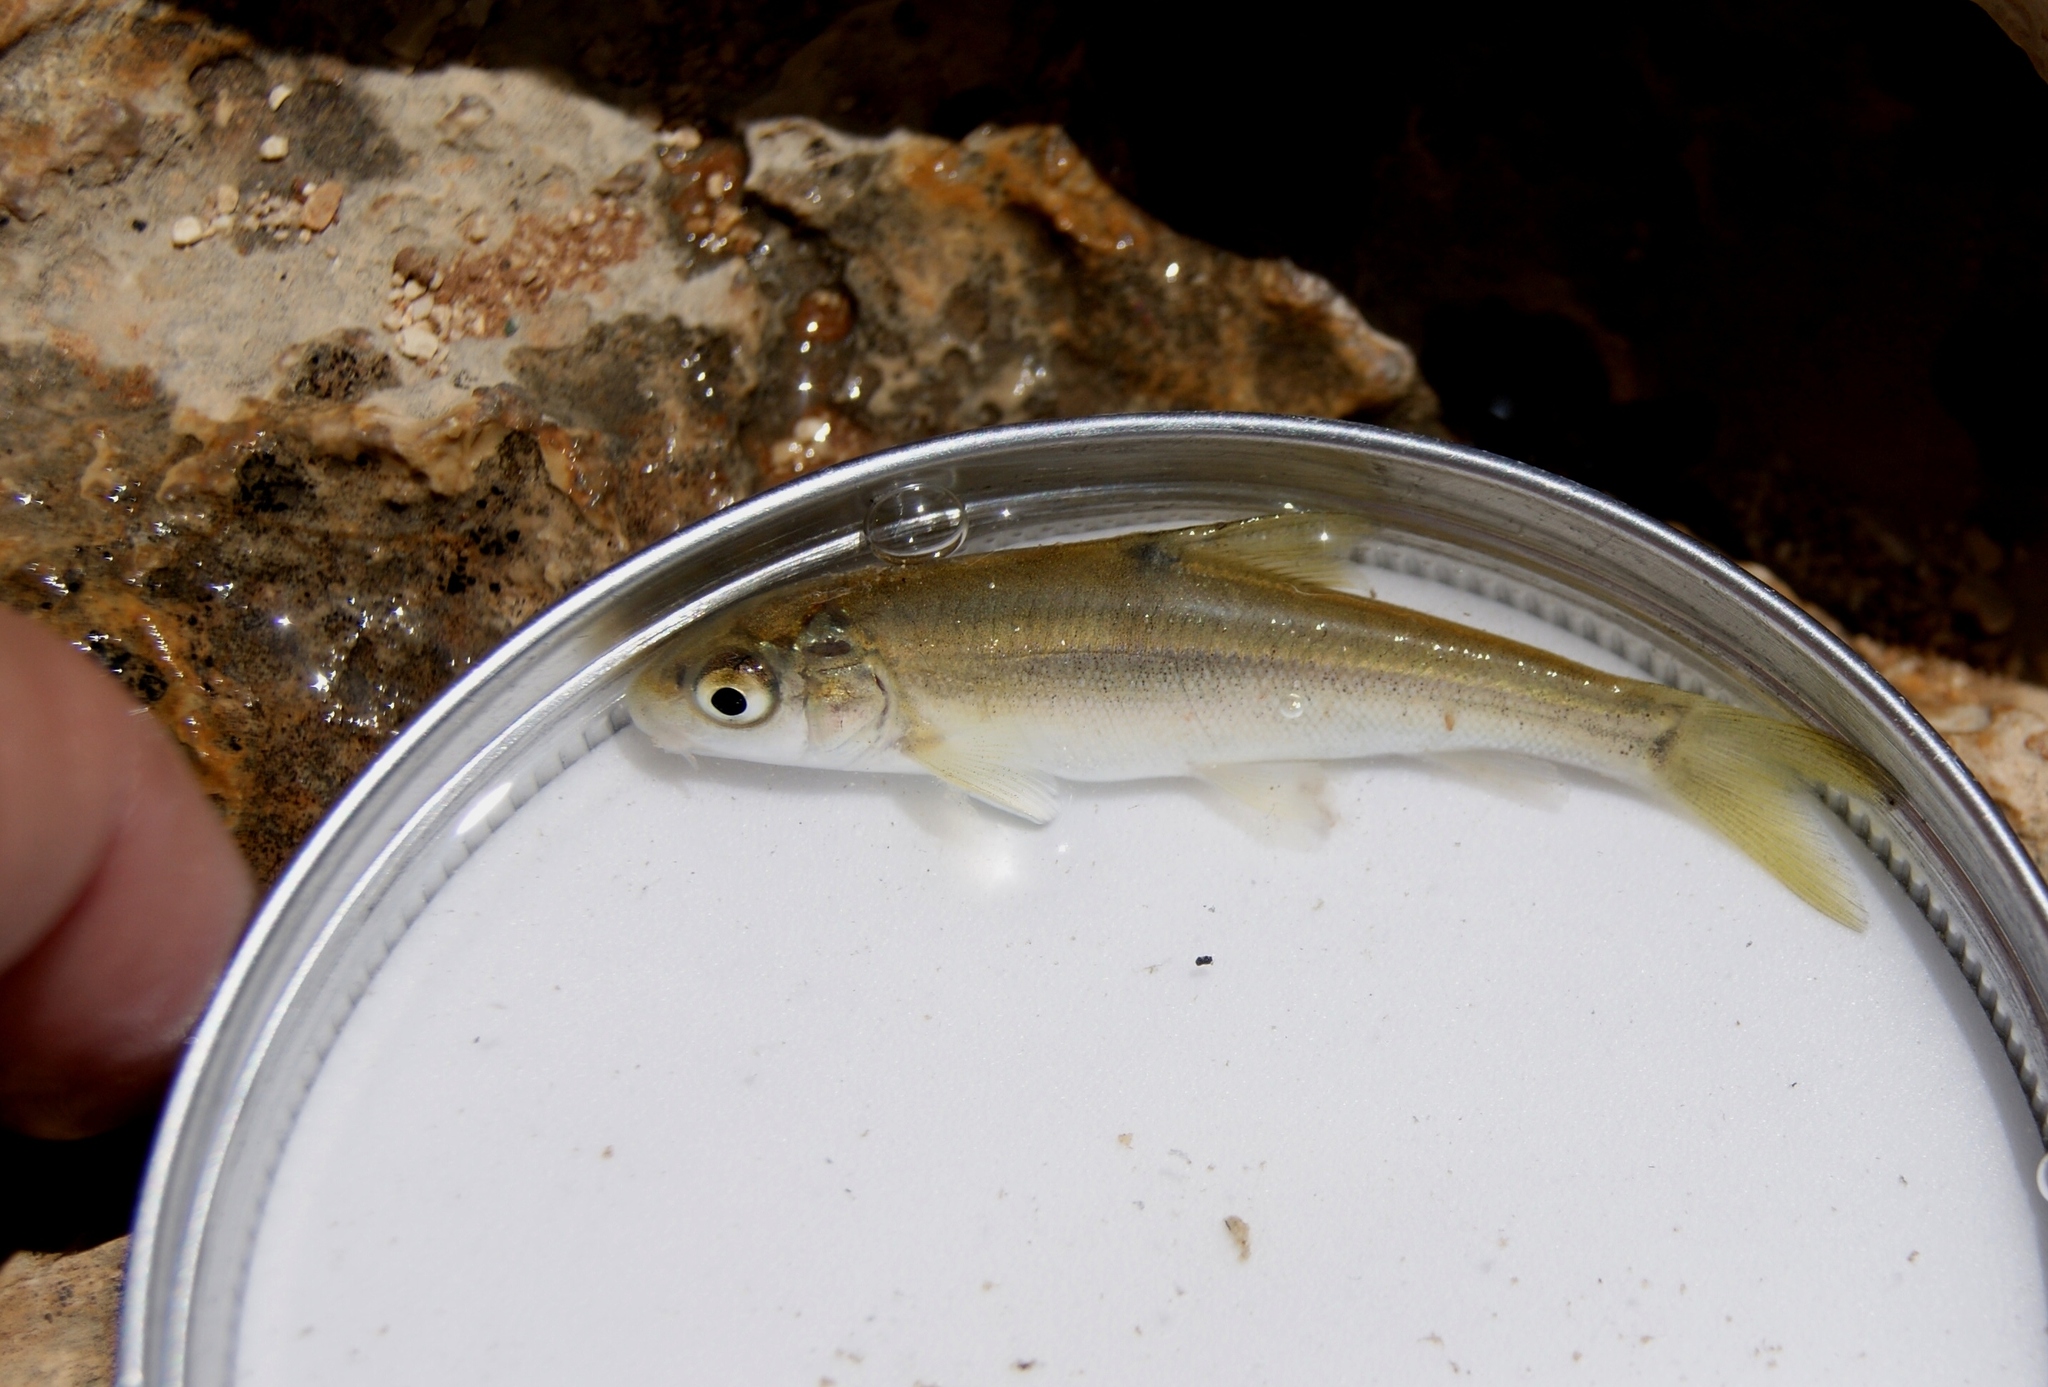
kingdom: Animalia
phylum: Chordata
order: Cypriniformes
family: Cyprinidae
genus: Capoeta
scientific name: Capoeta damascina
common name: Levantine scraper
